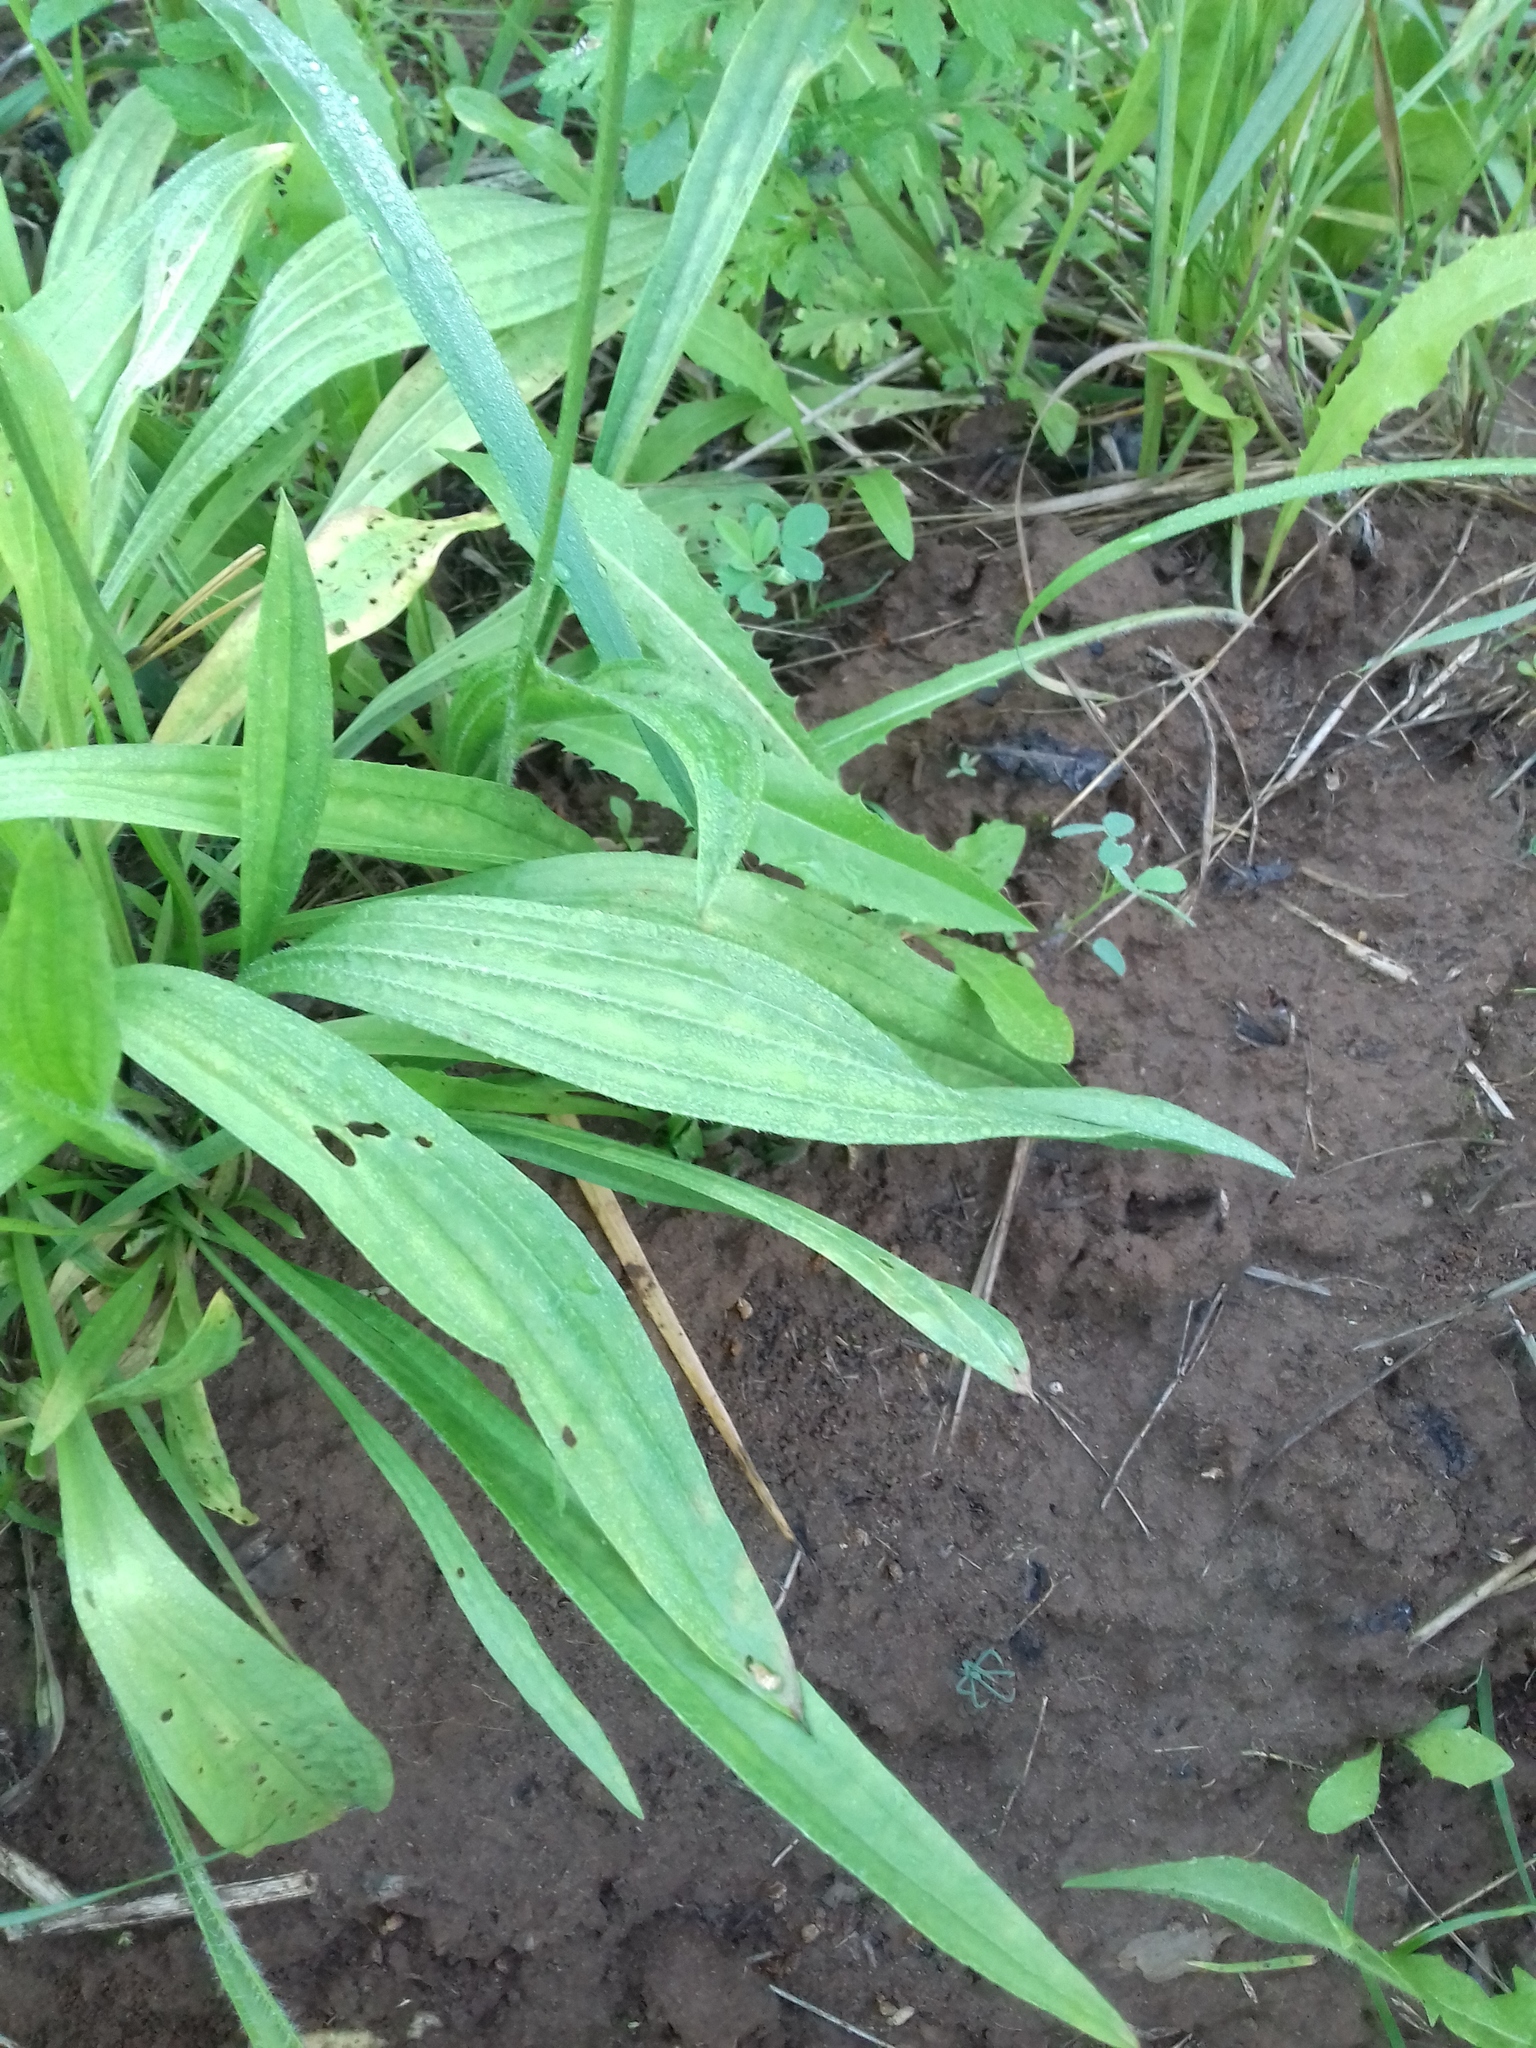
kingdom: Plantae
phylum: Tracheophyta
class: Magnoliopsida
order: Lamiales
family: Plantaginaceae
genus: Plantago
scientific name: Plantago lanceolata
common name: Ribwort plantain
